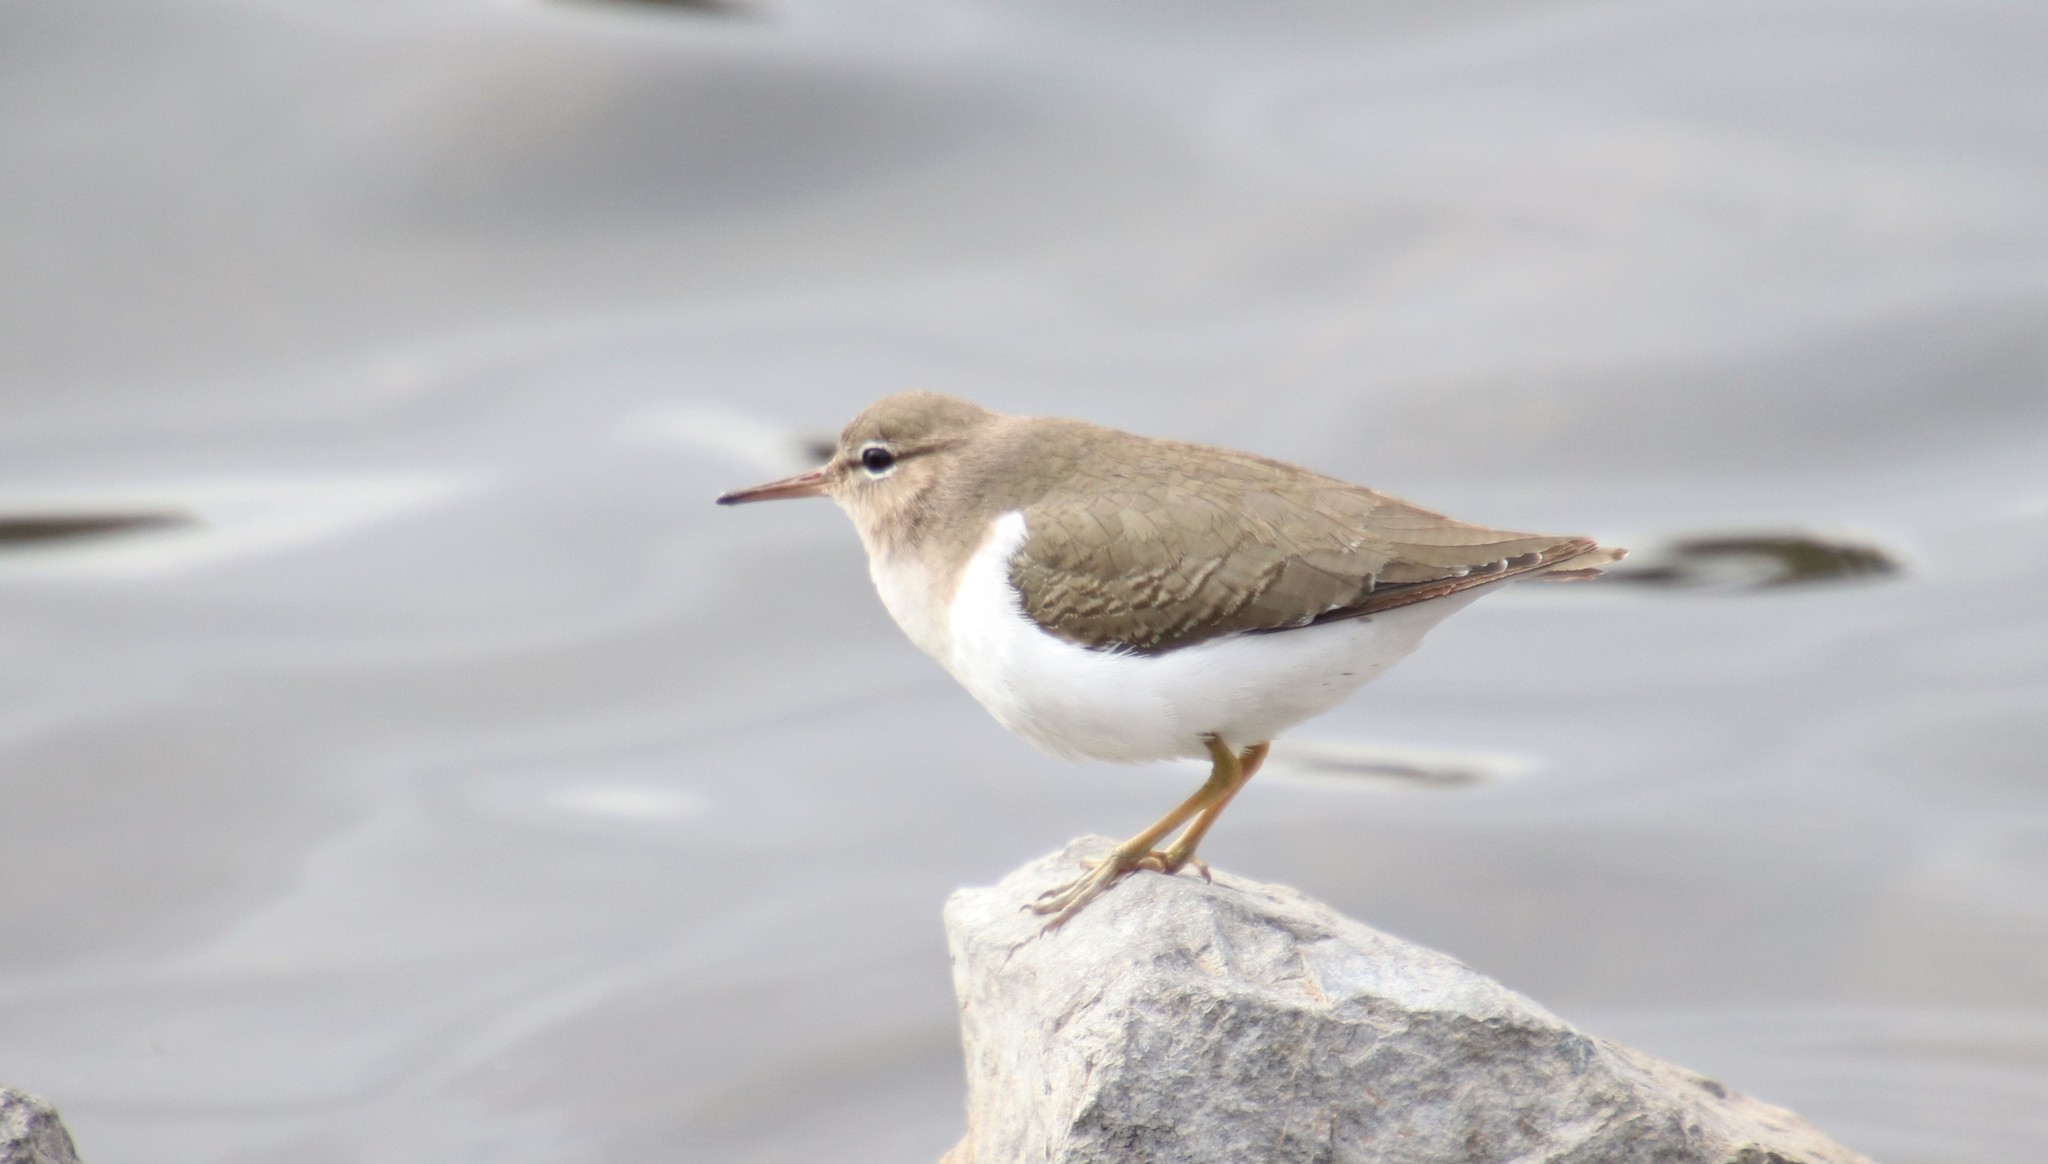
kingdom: Animalia
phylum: Chordata
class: Aves
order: Charadriiformes
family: Scolopacidae
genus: Actitis
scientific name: Actitis macularius
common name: Spotted sandpiper
